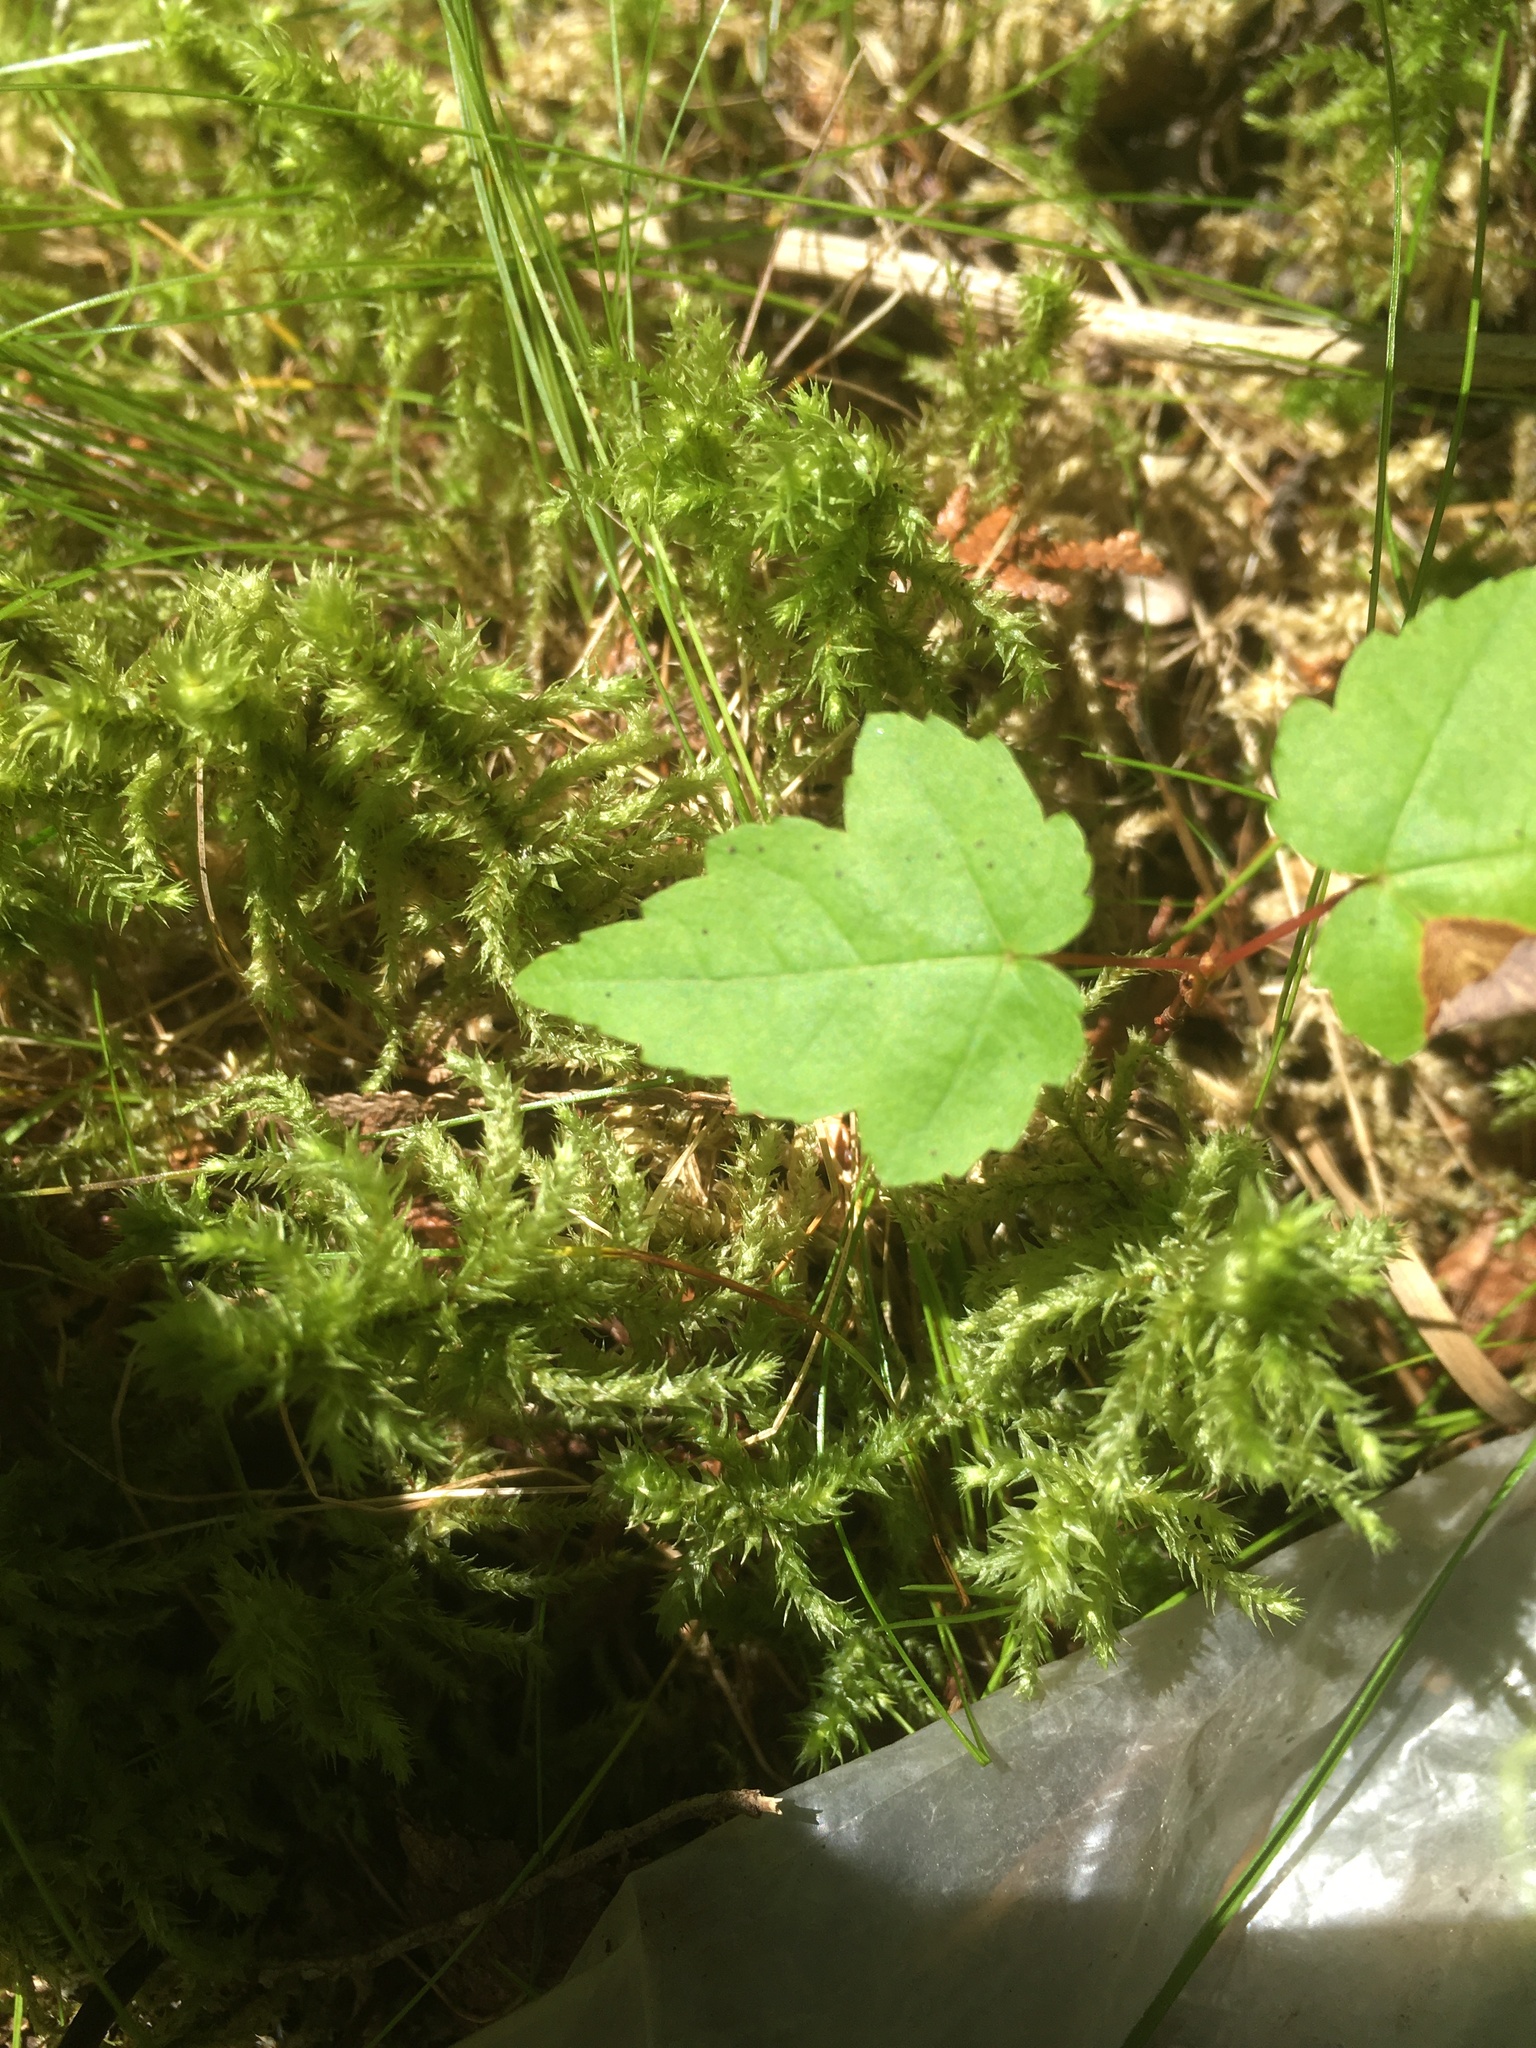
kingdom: Plantae
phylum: Tracheophyta
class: Magnoliopsida
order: Sapindales
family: Sapindaceae
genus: Acer
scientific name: Acer rubrum
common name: Red maple
